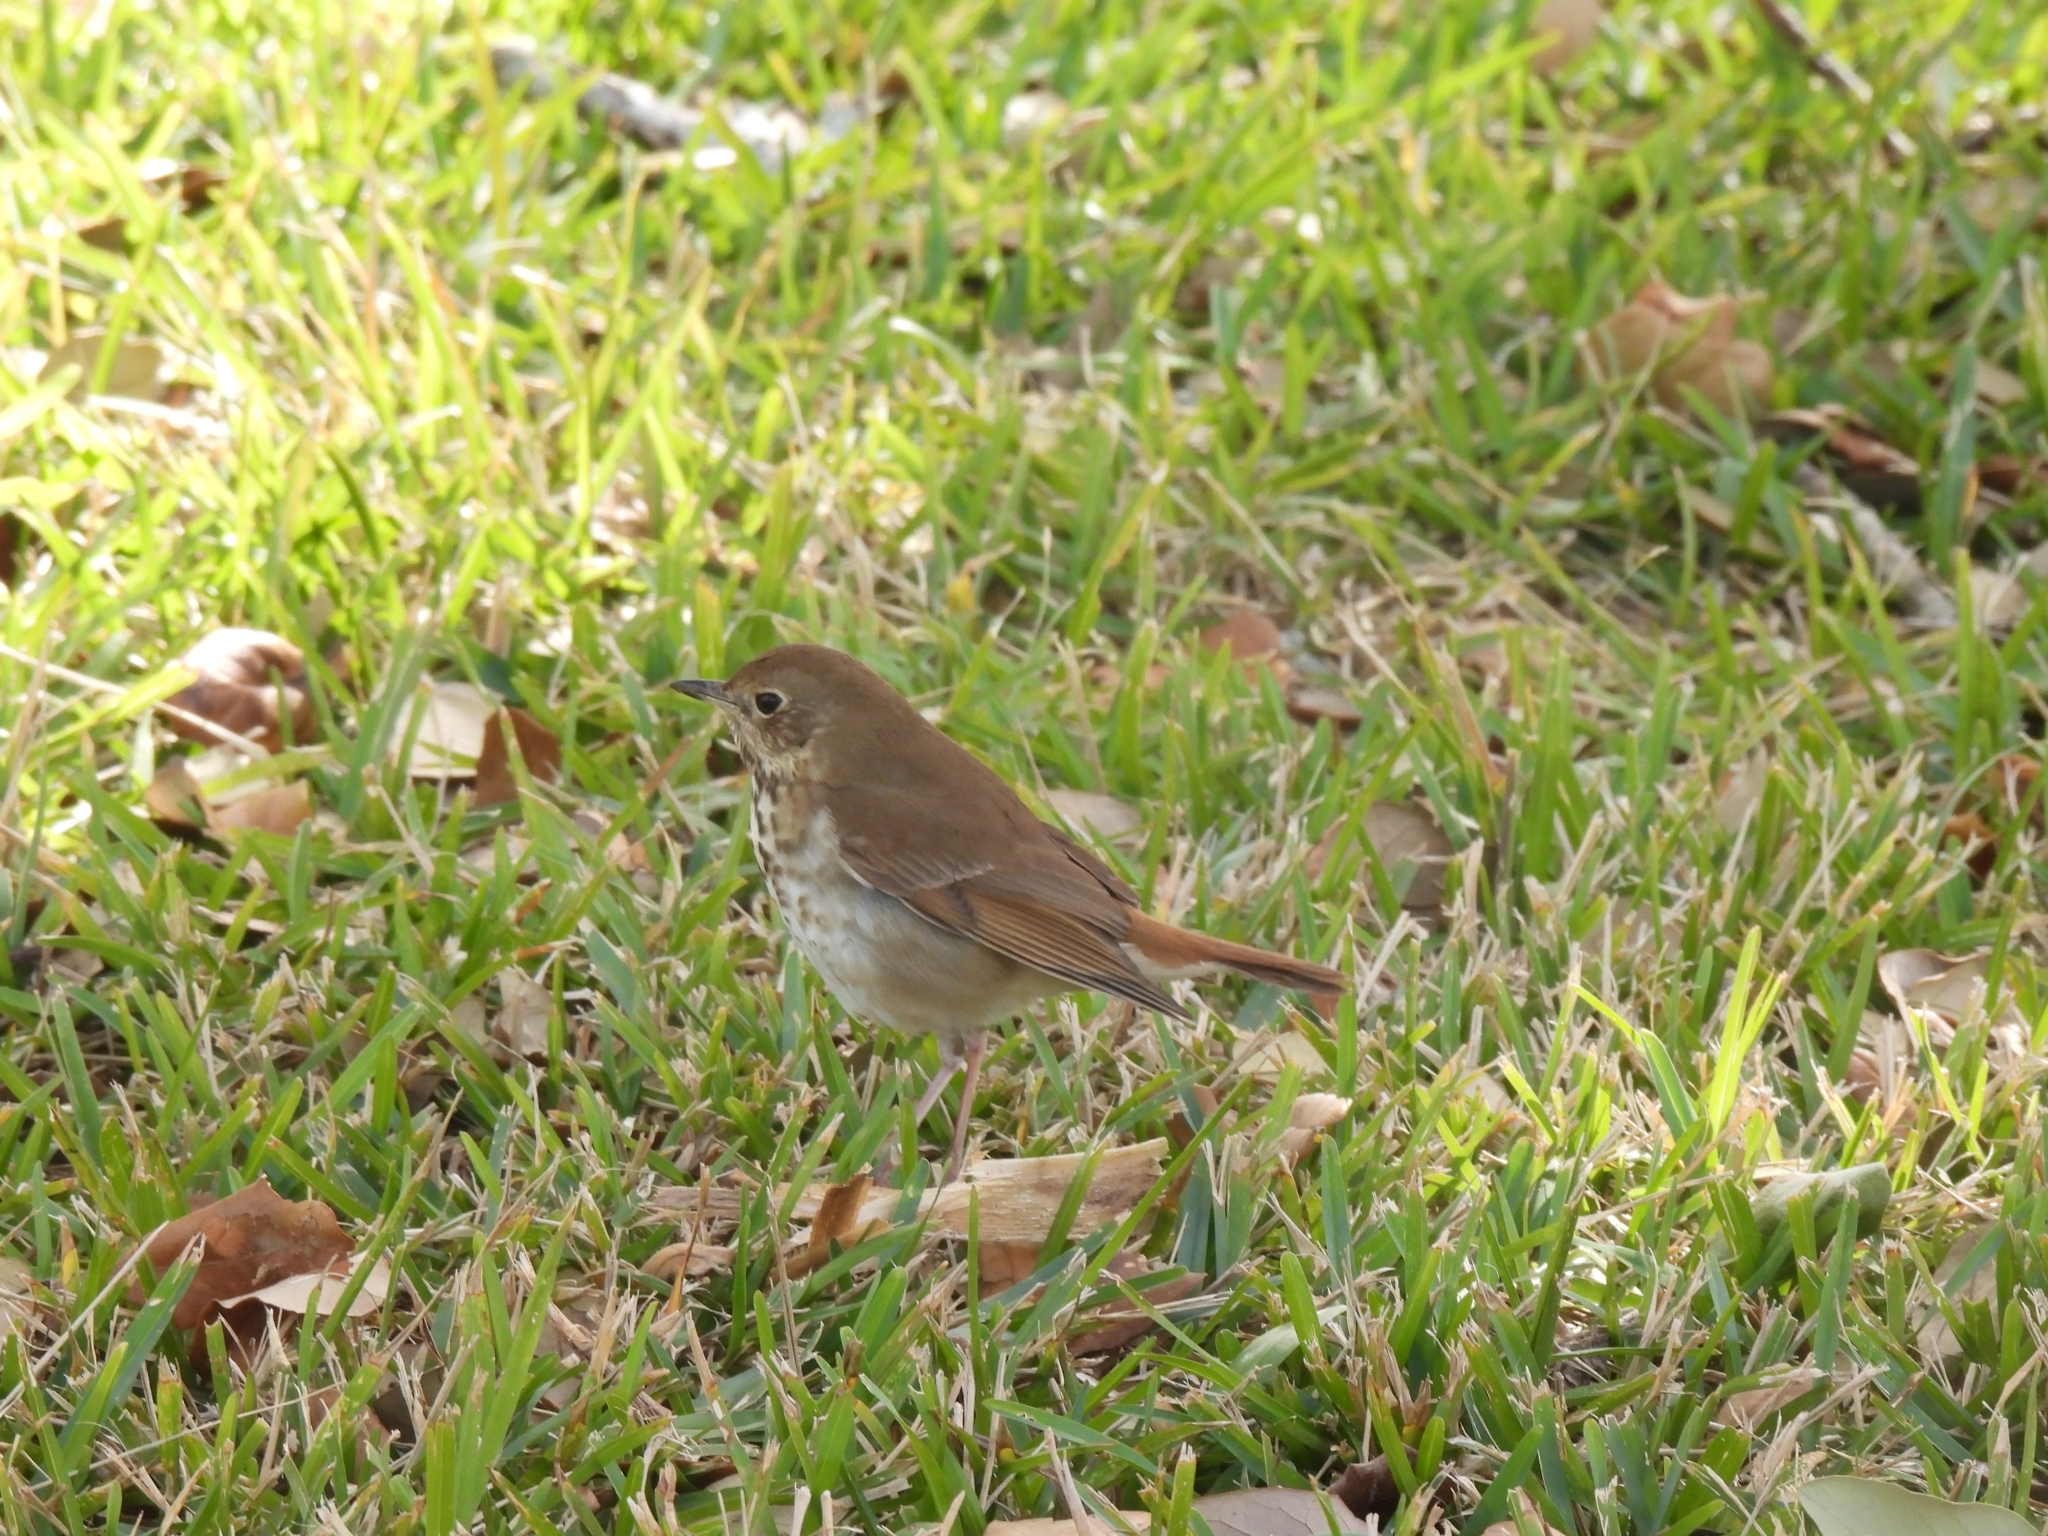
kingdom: Animalia
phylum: Chordata
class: Aves
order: Passeriformes
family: Turdidae
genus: Catharus
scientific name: Catharus guttatus
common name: Hermit thrush
